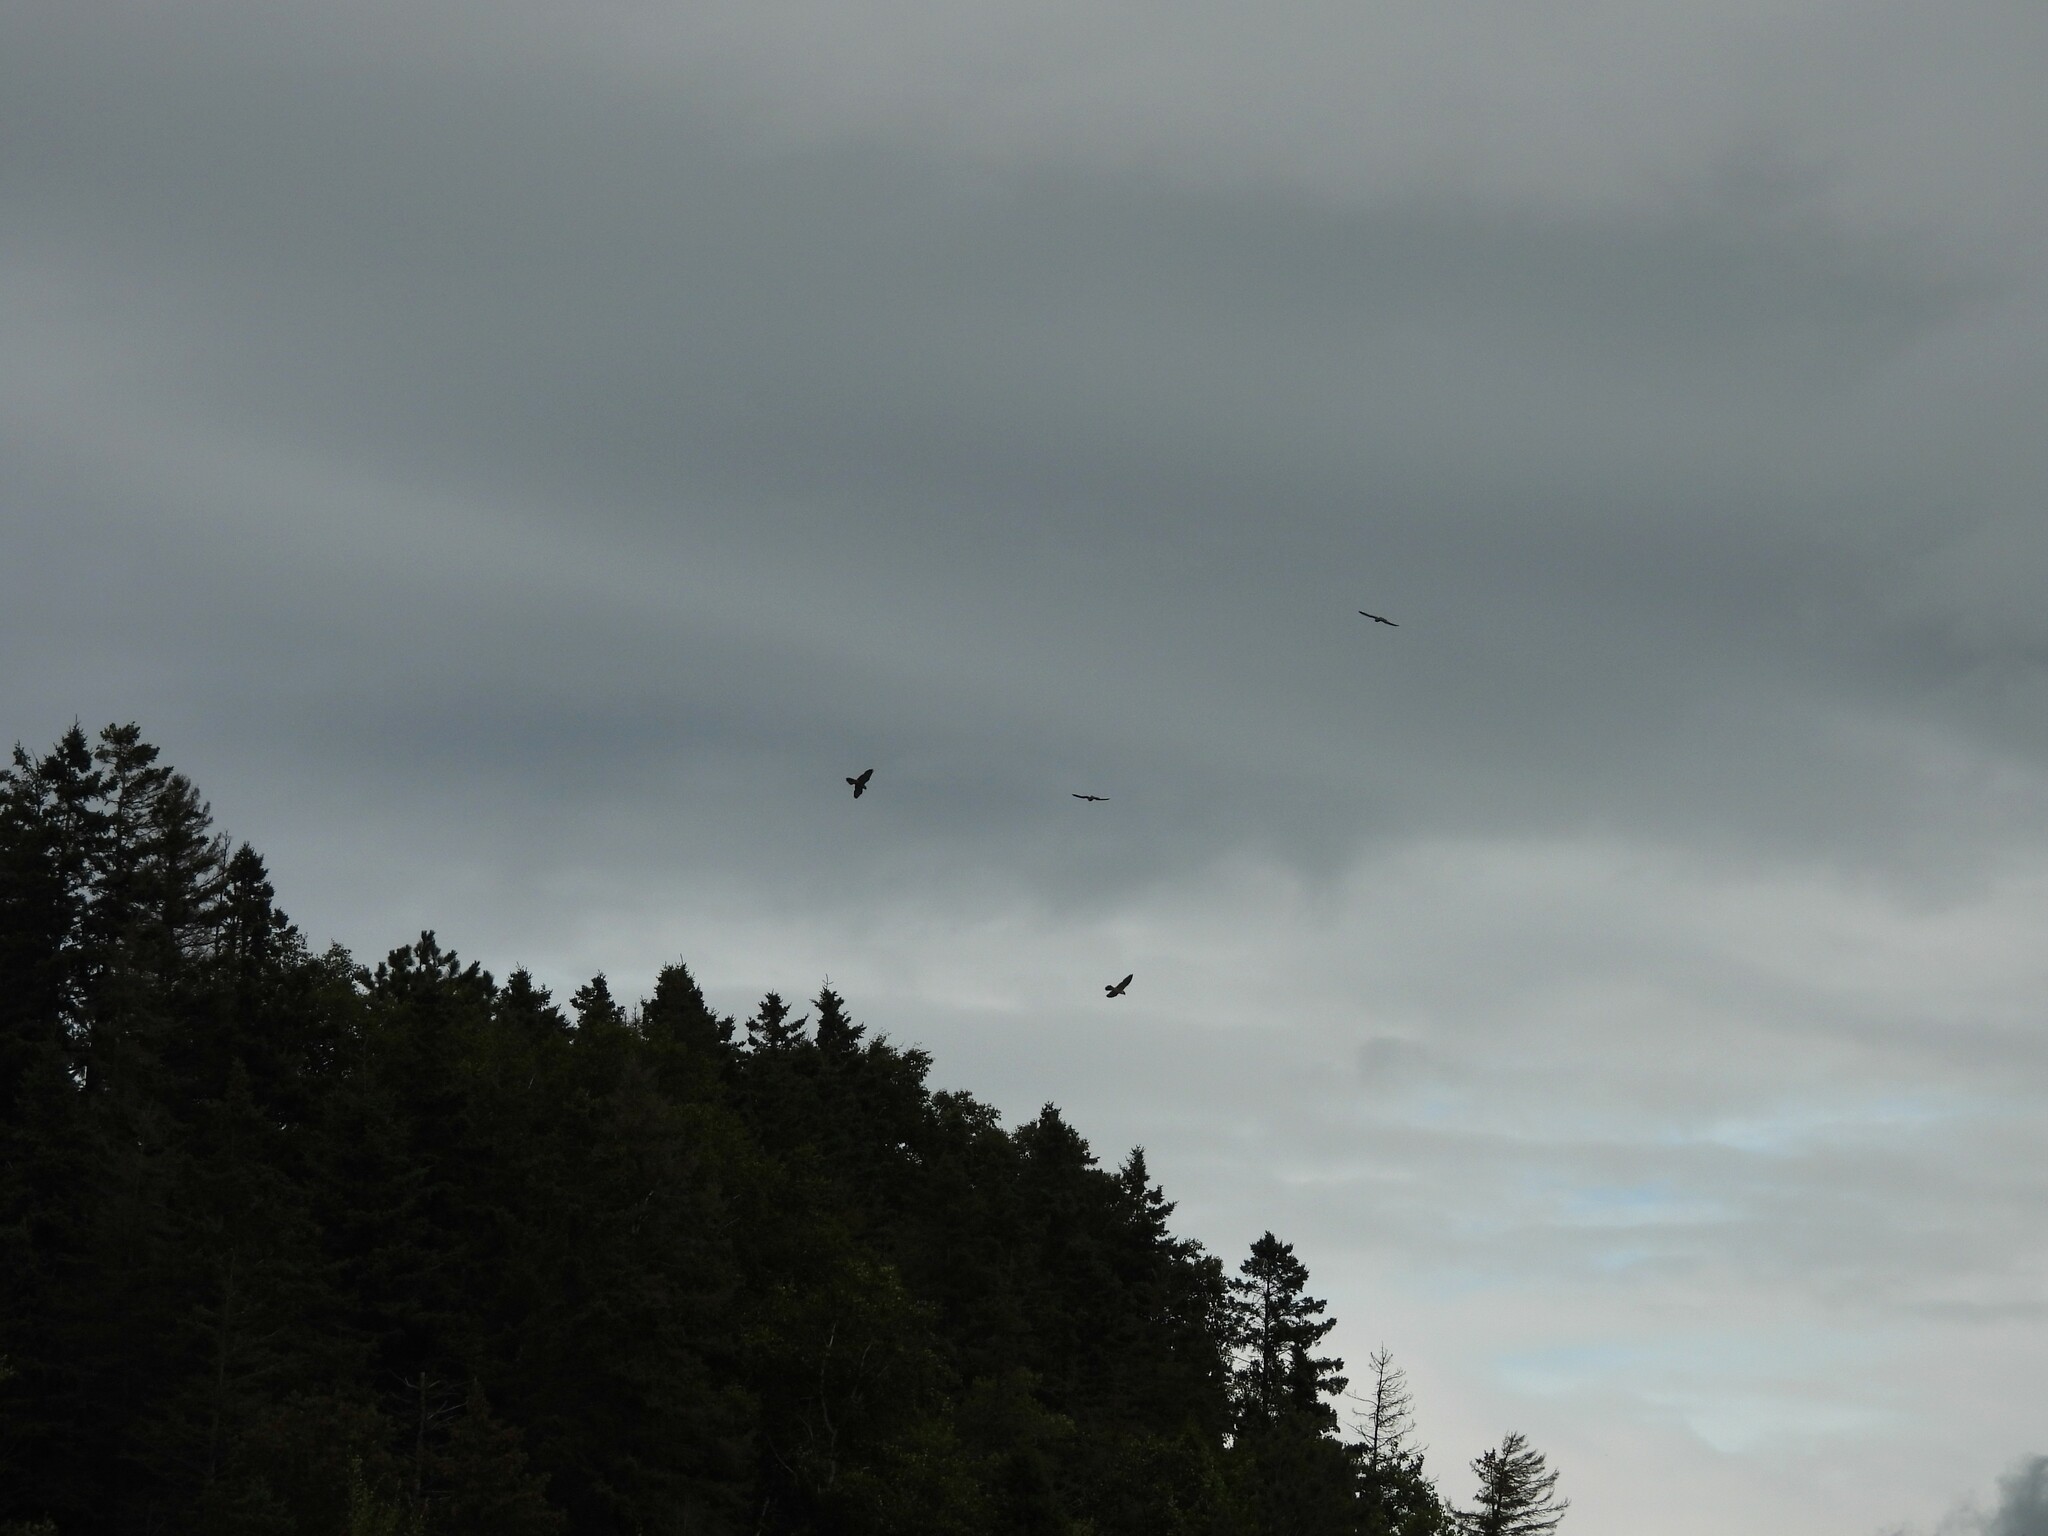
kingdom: Animalia
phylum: Chordata
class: Aves
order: Falconiformes
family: Falconidae
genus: Falco
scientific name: Falco peregrinus
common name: Peregrine falcon
